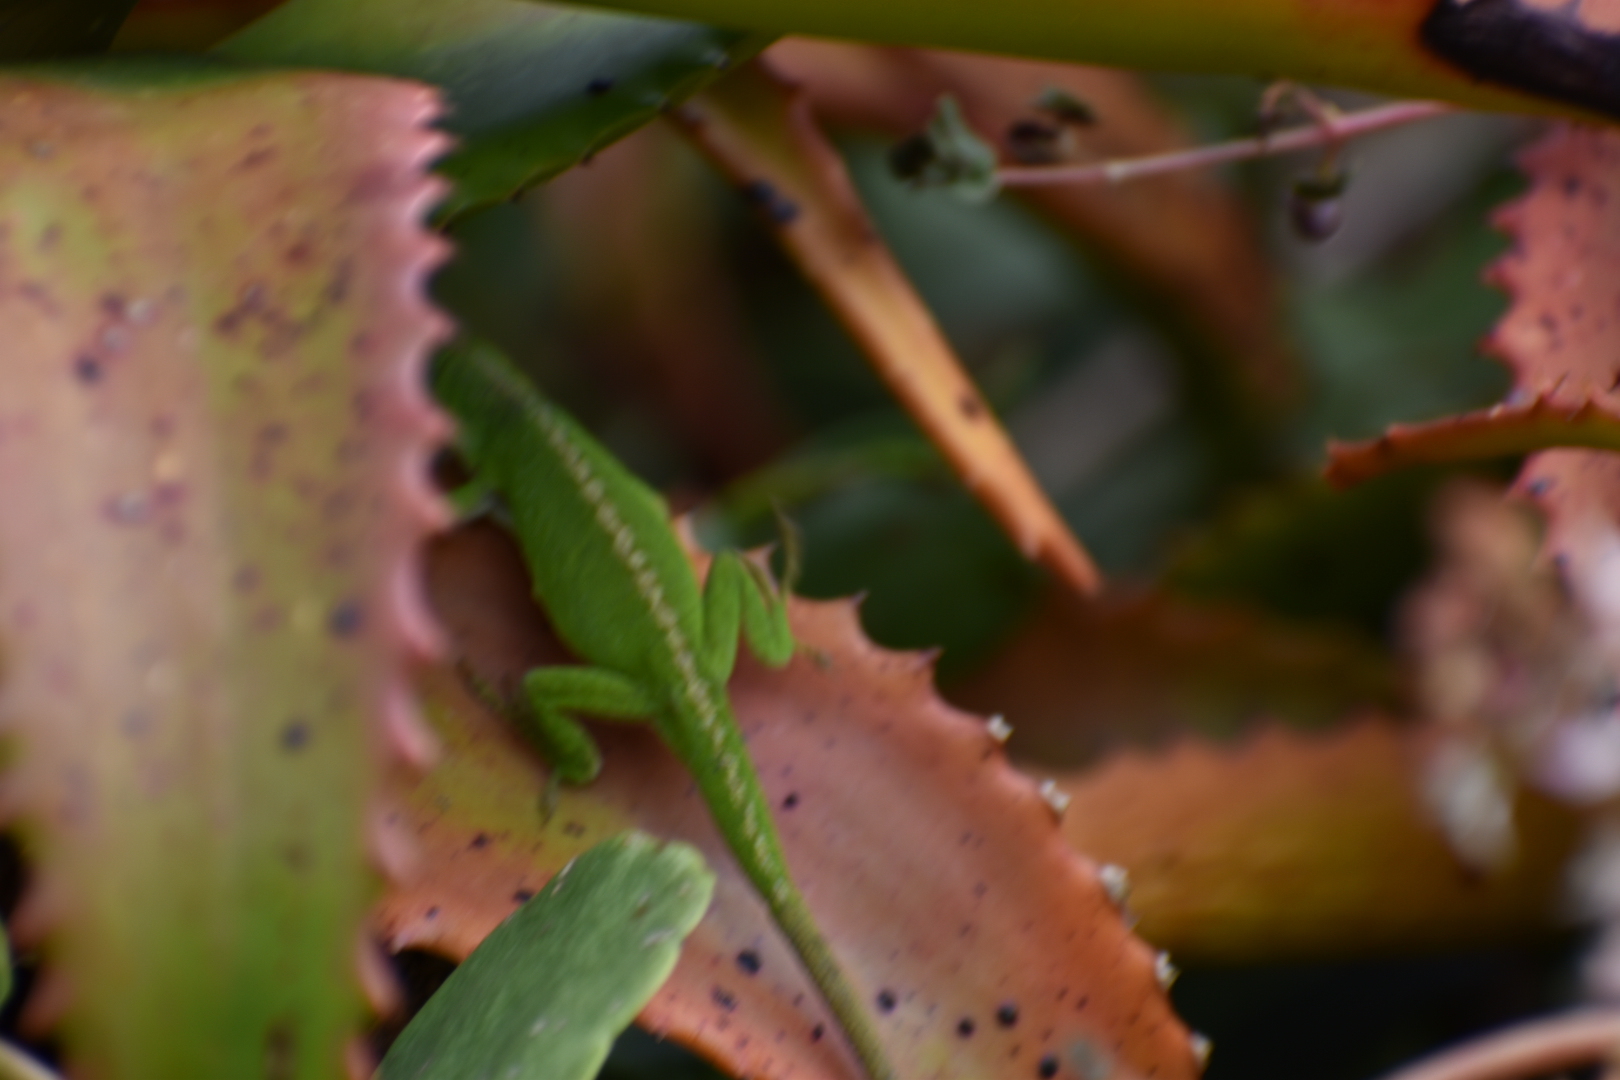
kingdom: Animalia
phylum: Chordata
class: Squamata
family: Dactyloidae
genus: Anolis
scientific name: Anolis carolinensis
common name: Green anole
